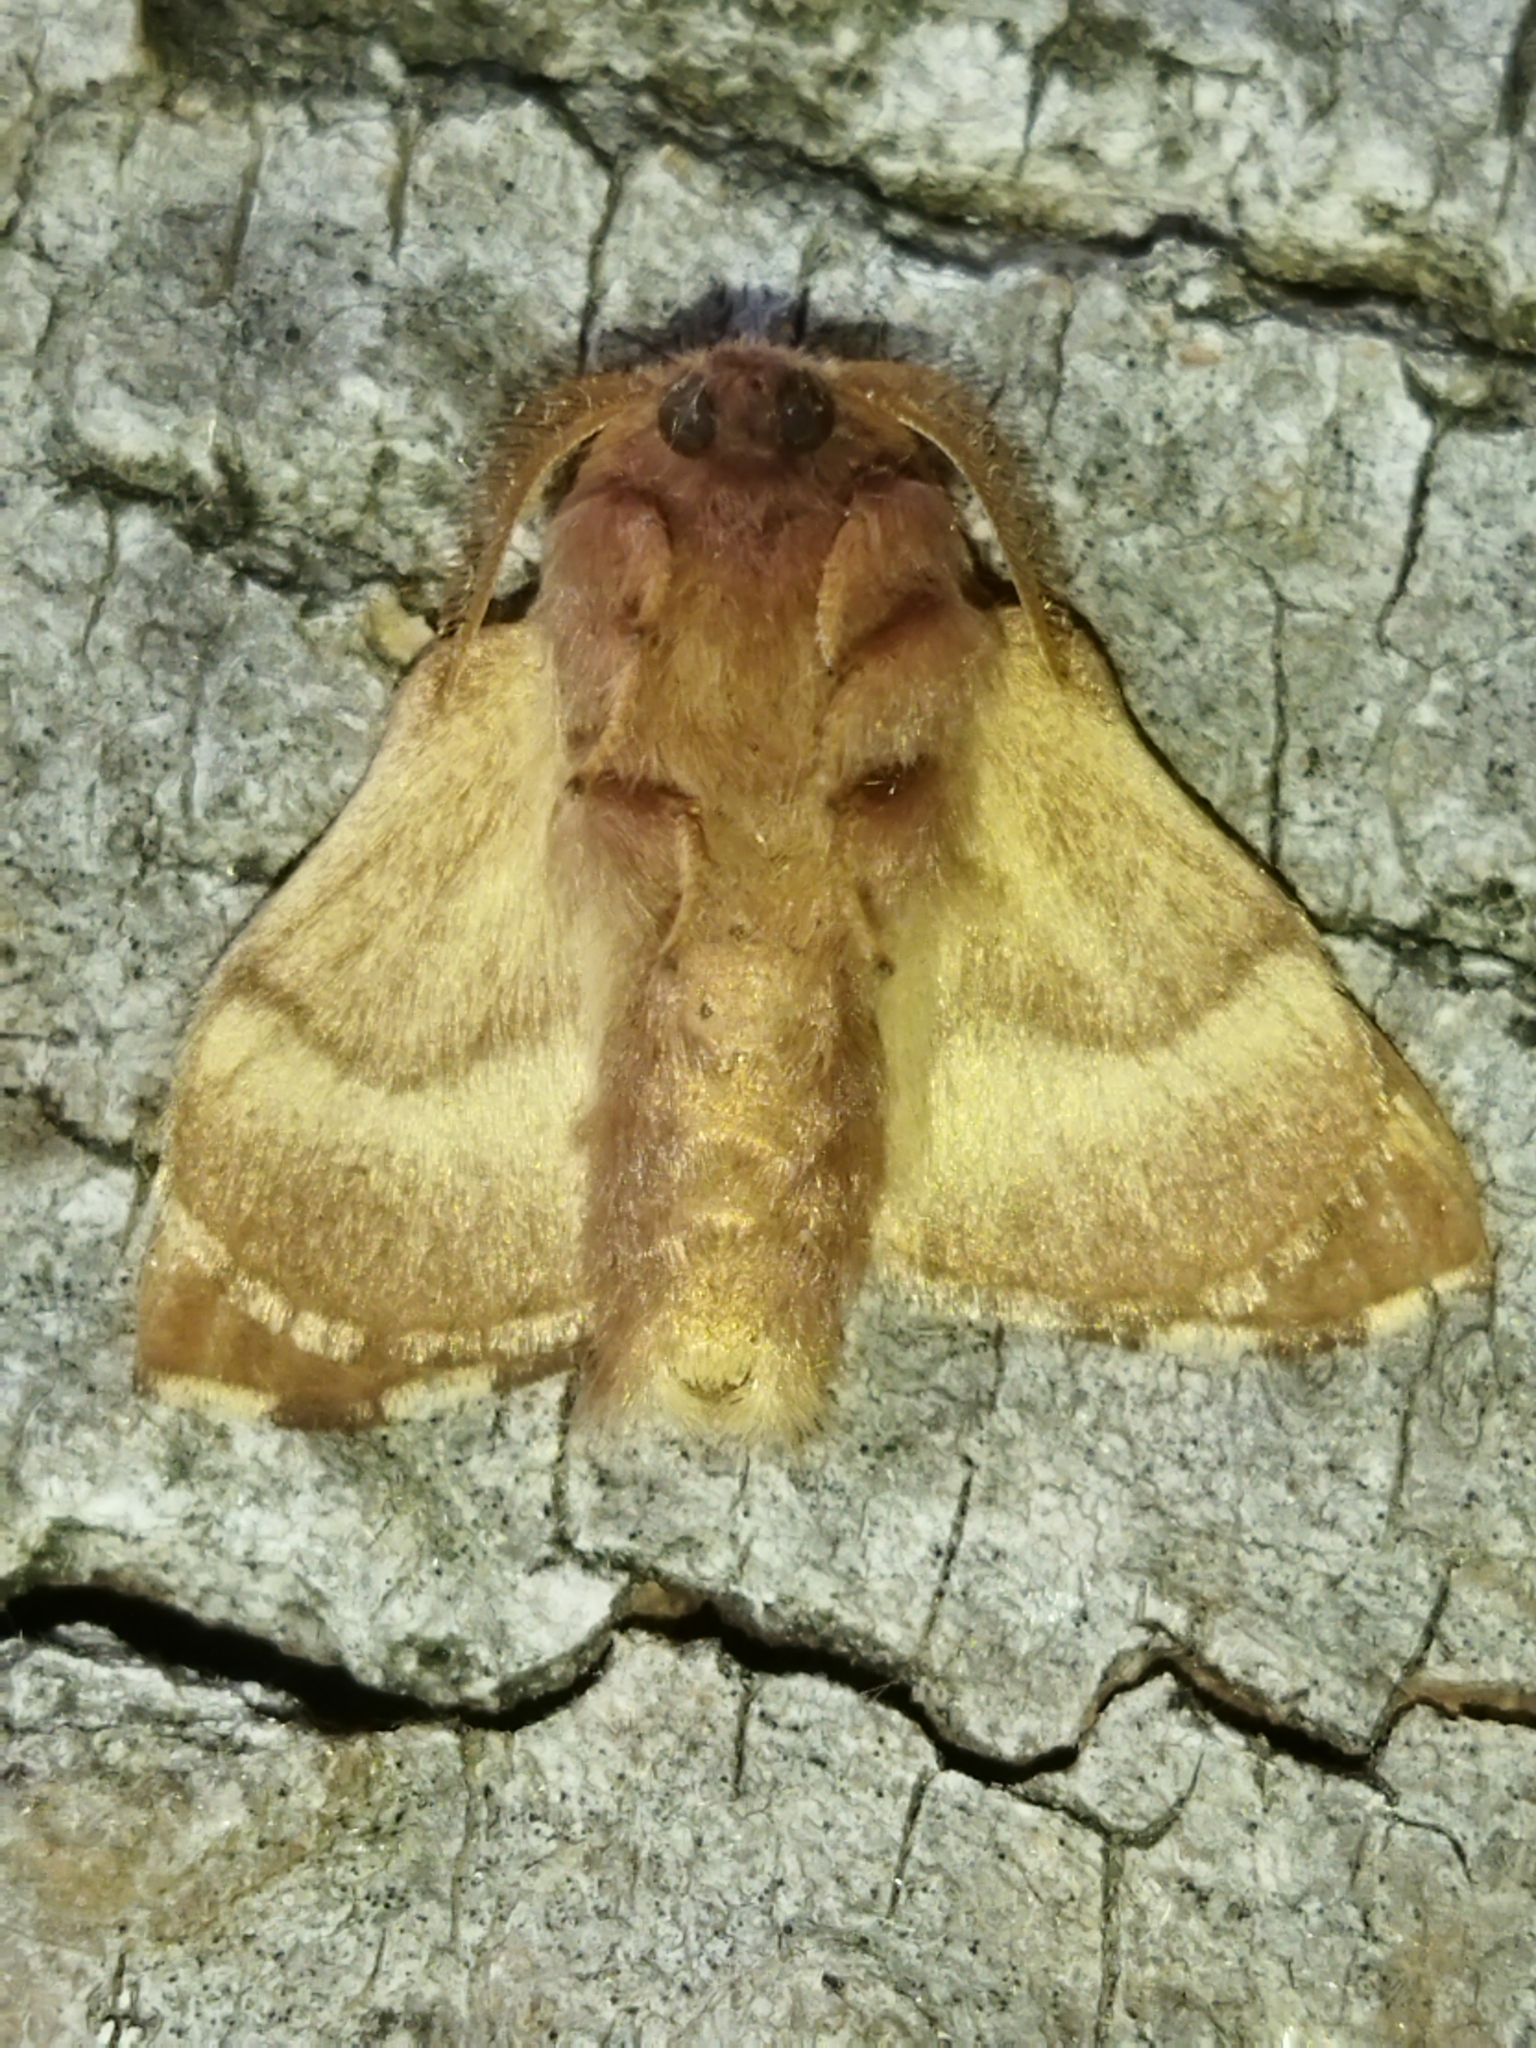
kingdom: Animalia
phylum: Arthropoda
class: Insecta
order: Lepidoptera
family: Lasiocampidae
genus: Malacosoma
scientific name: Malacosoma neustria
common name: The lackey
